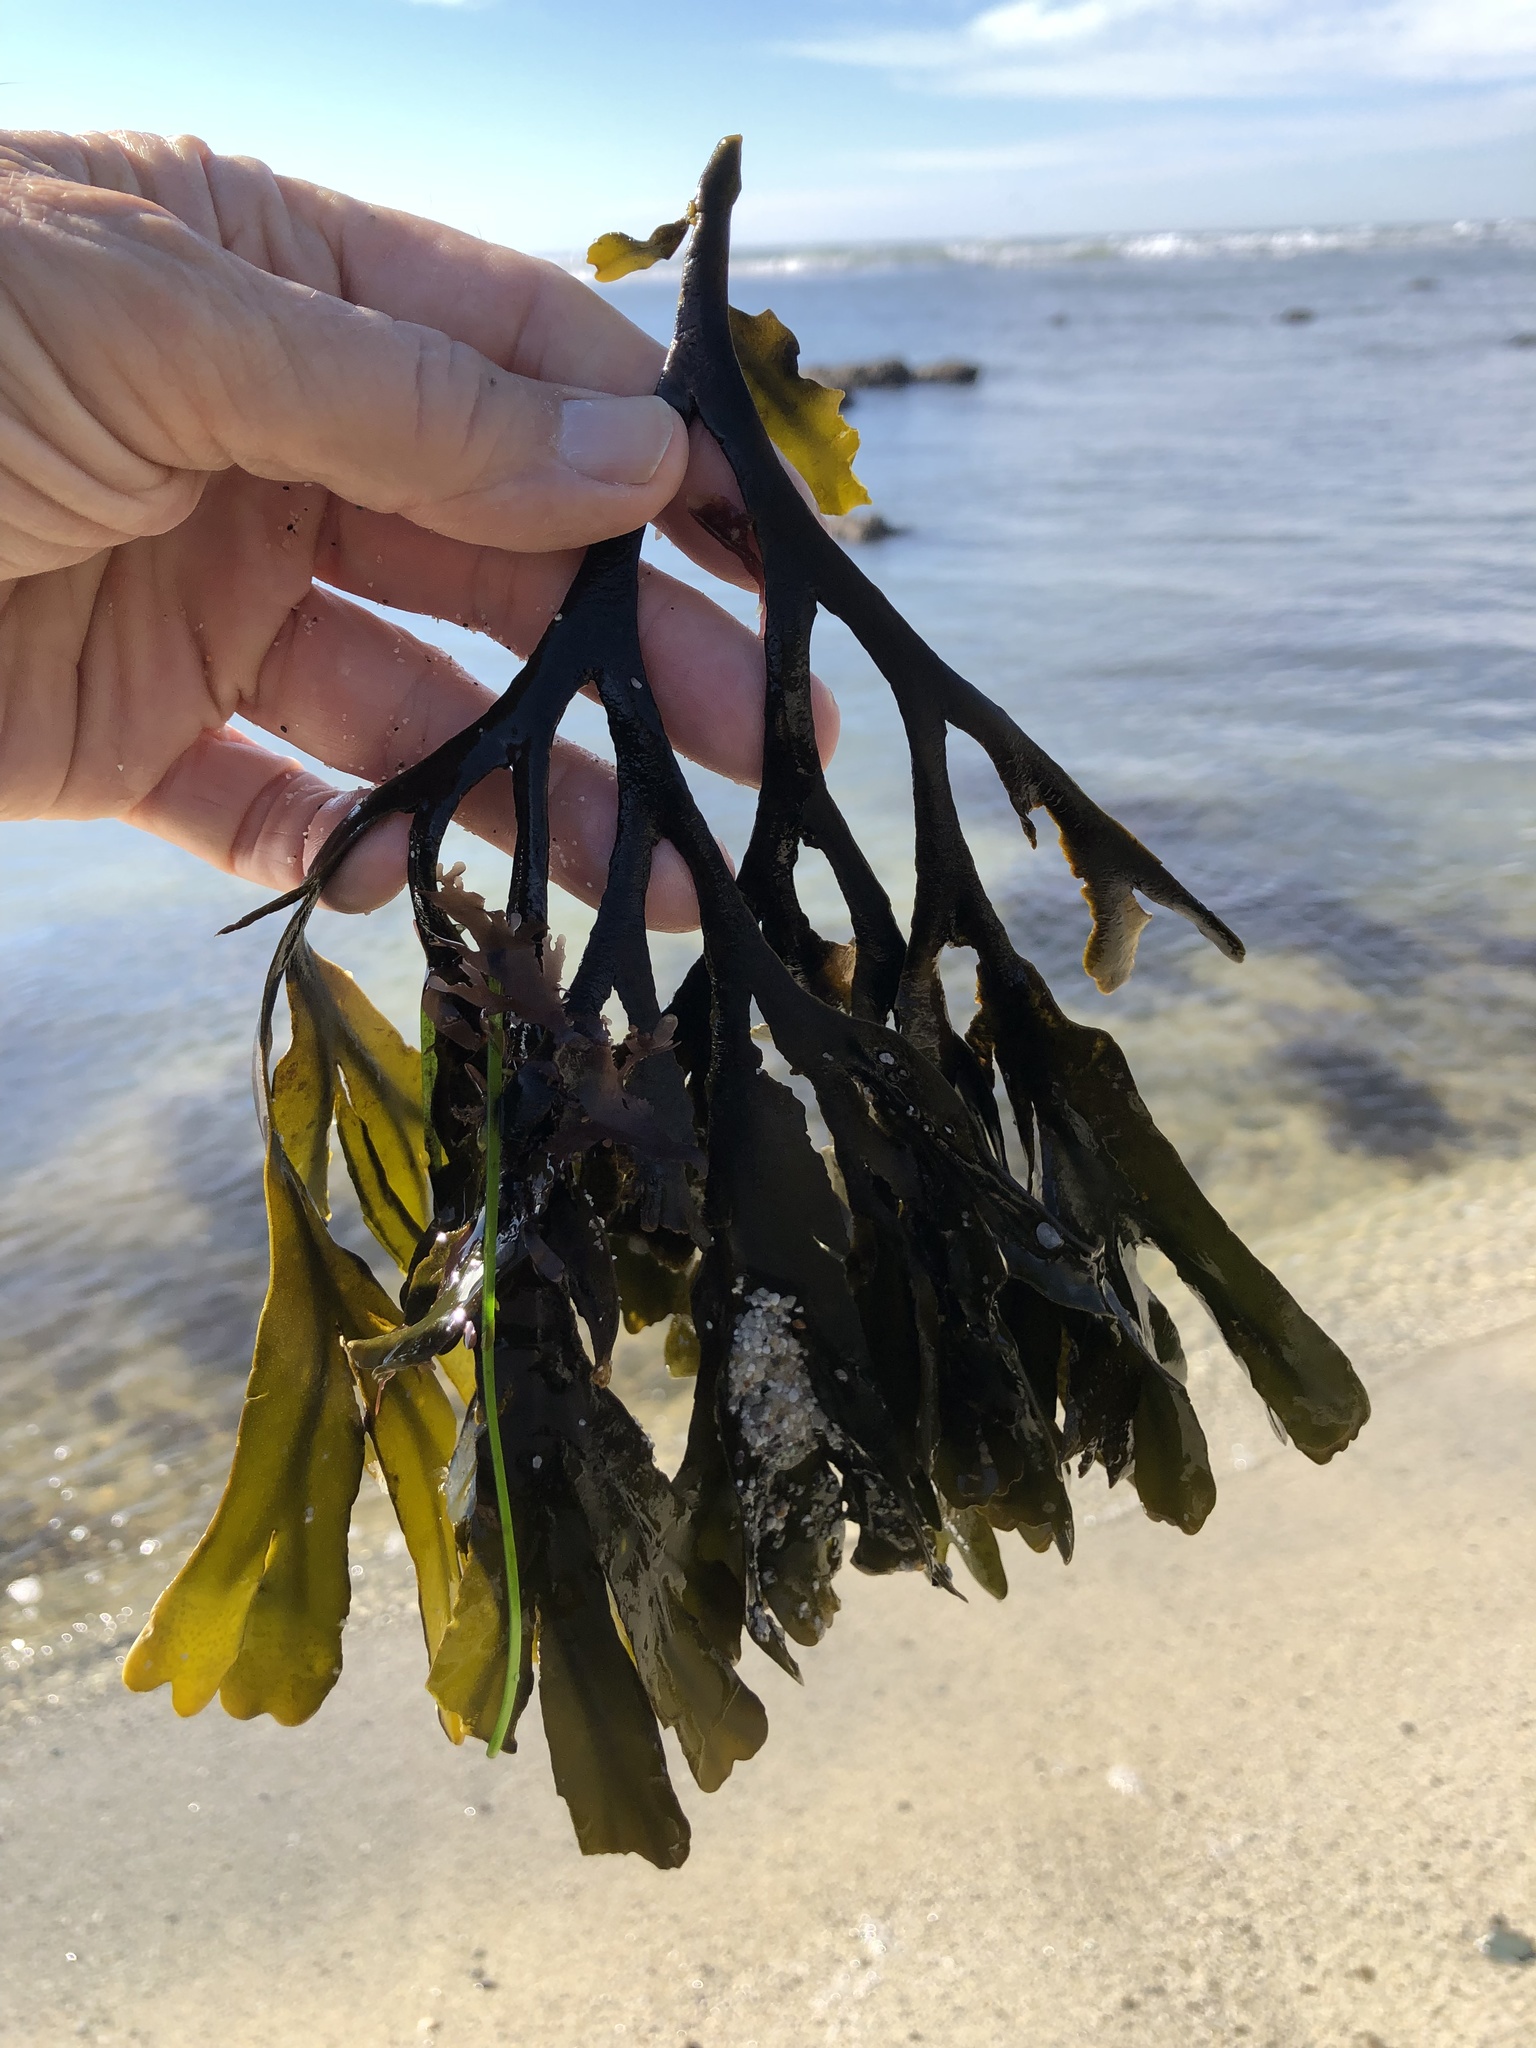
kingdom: Chromista
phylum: Ochrophyta
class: Phaeophyceae
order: Fucales
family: Fucaceae
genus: Fucus
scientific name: Fucus distichus
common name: Rockweed
